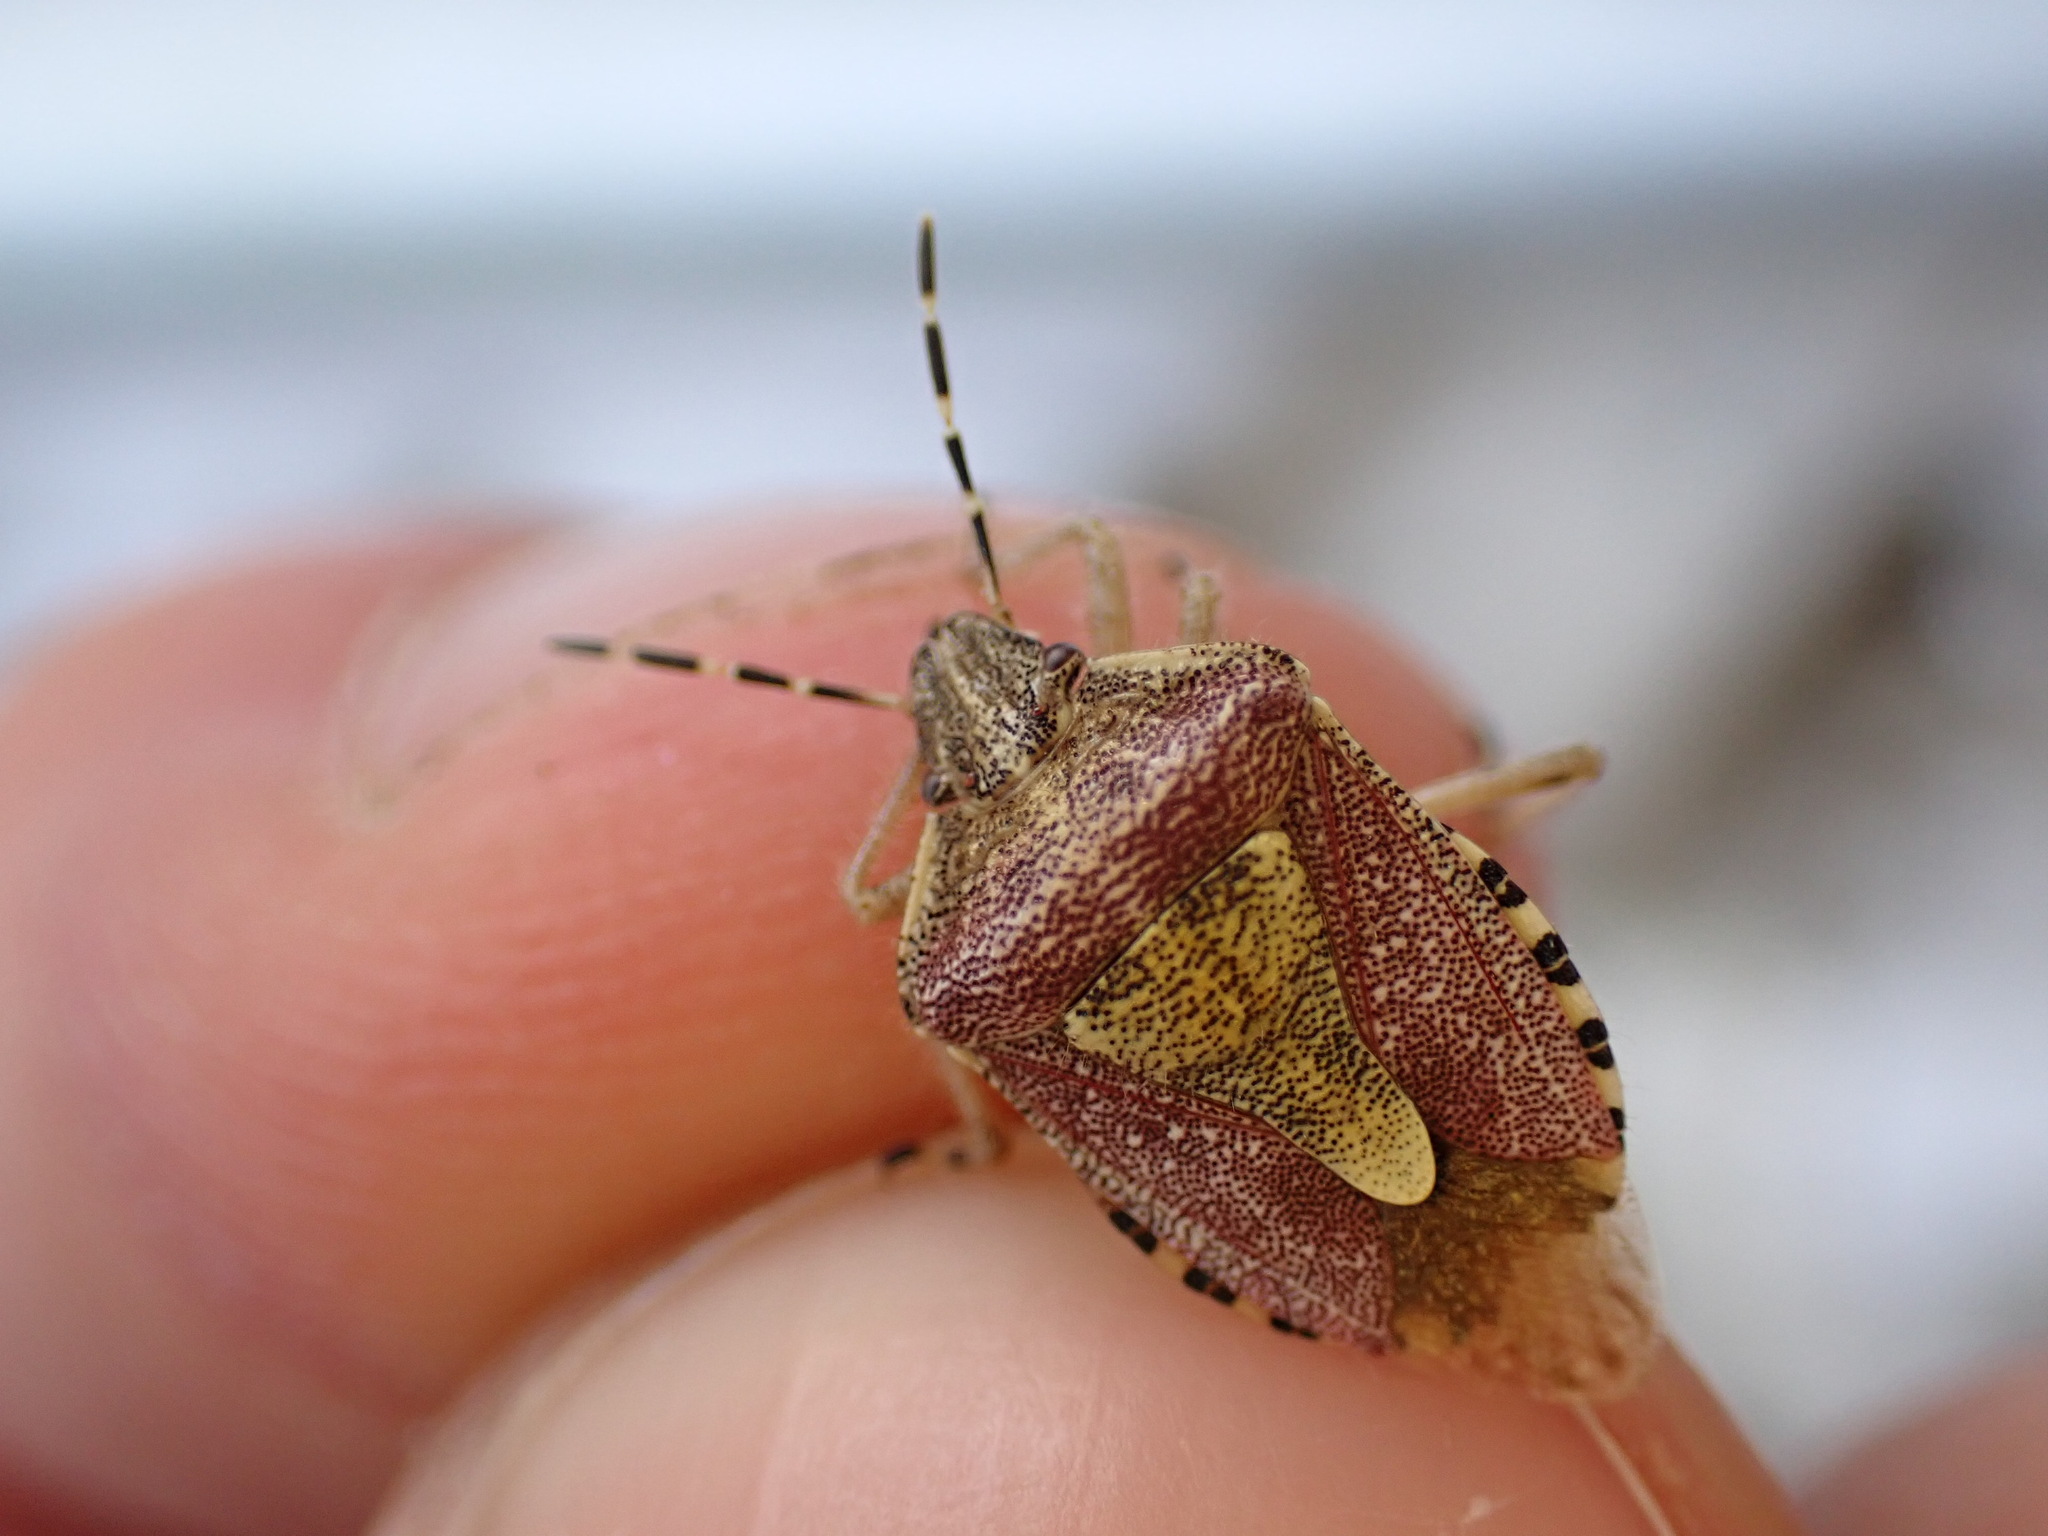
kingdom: Animalia
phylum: Arthropoda
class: Insecta
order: Hemiptera
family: Pentatomidae
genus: Dolycoris
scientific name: Dolycoris baccarum
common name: Sloe bug
